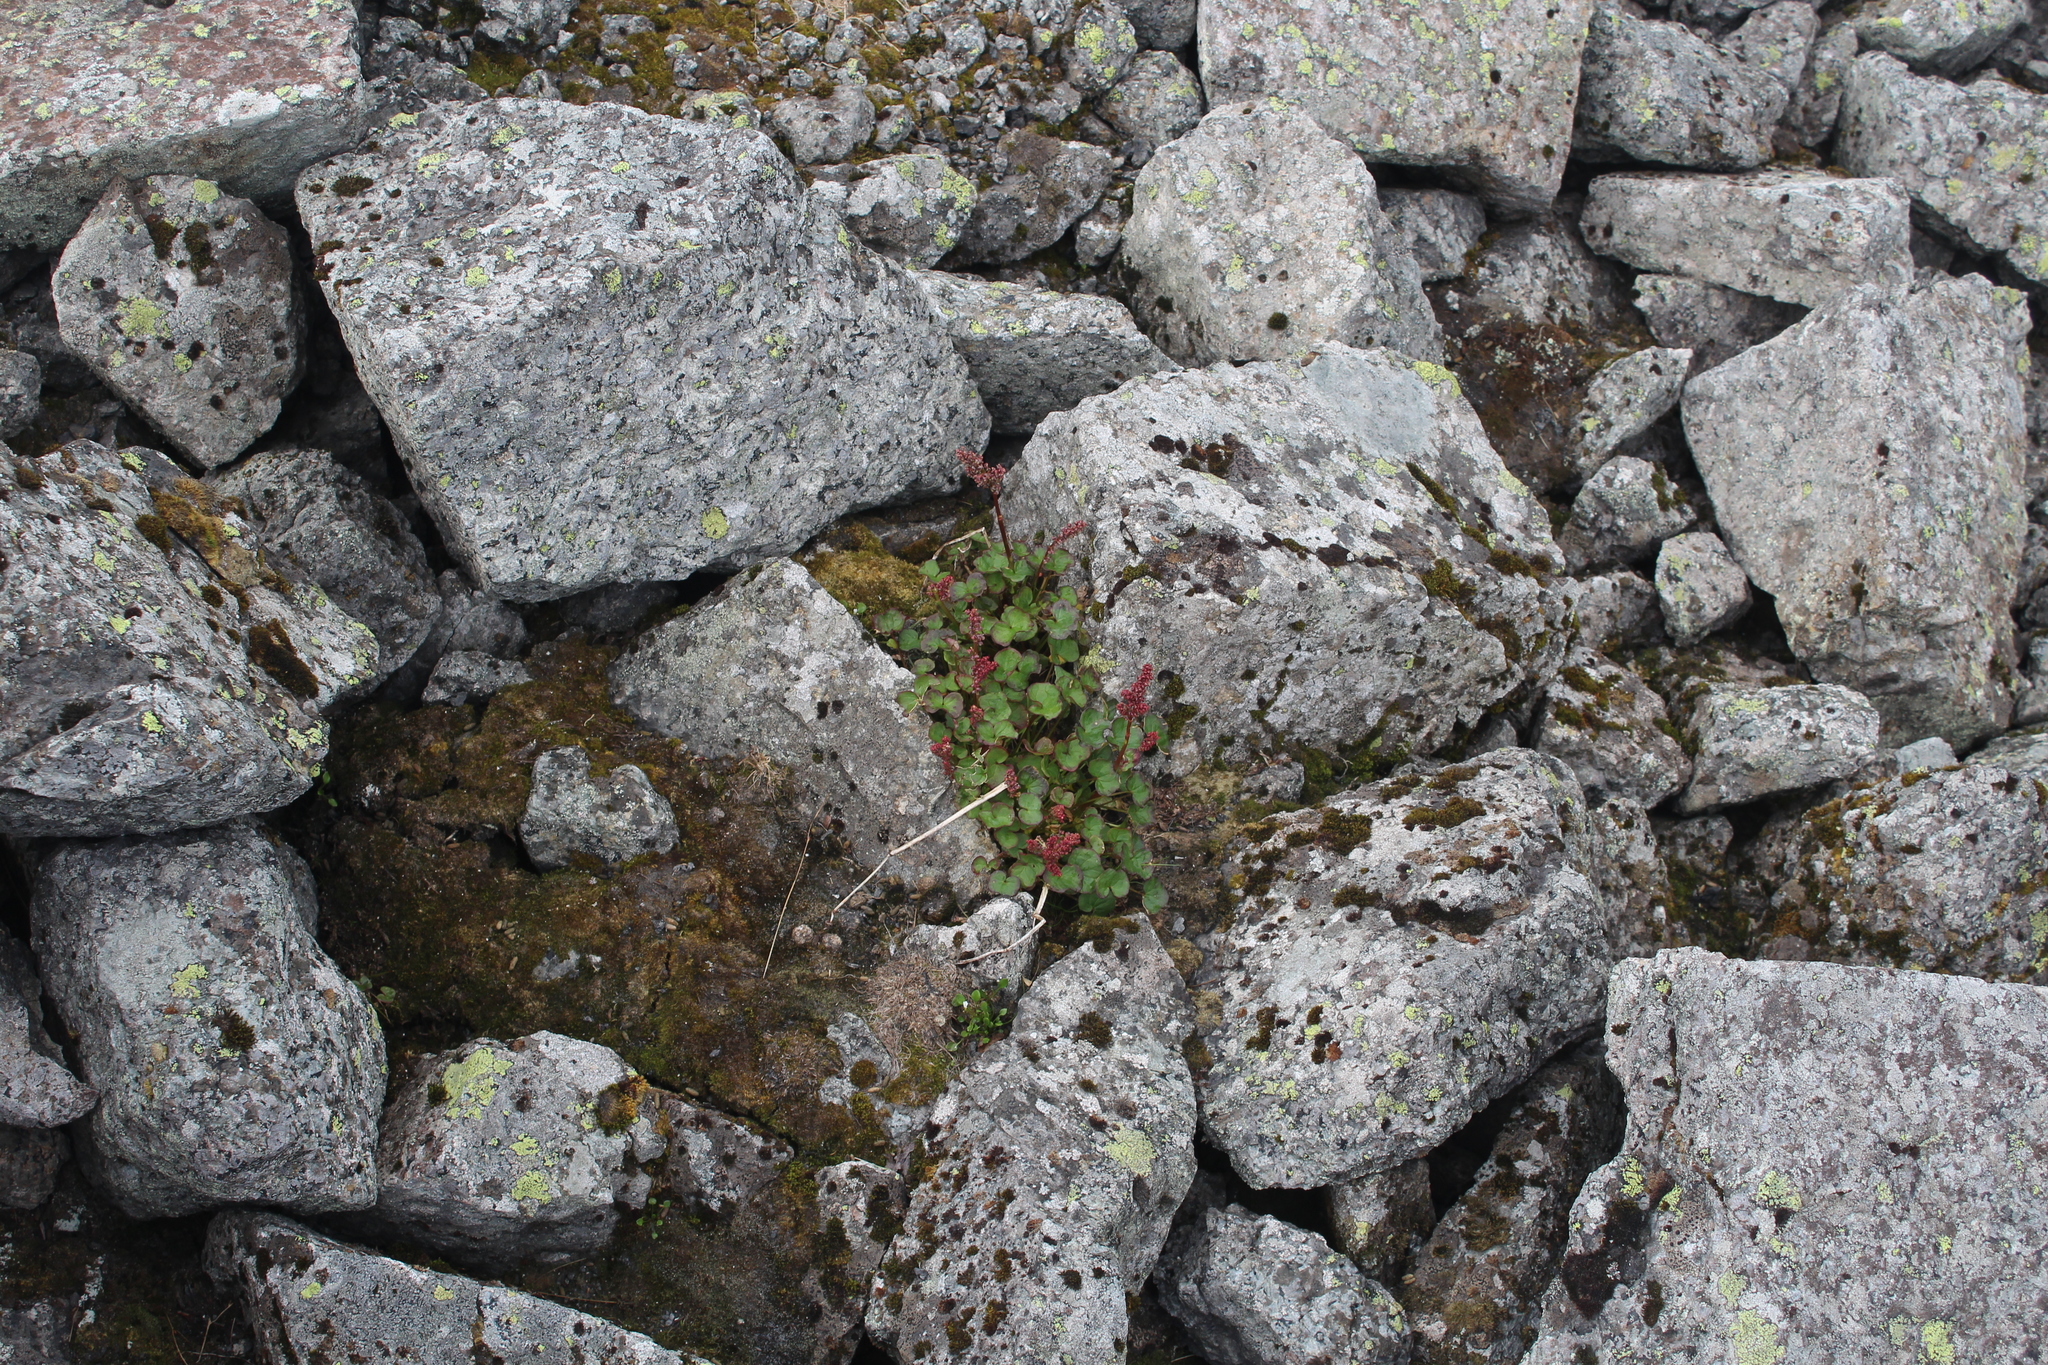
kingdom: Plantae
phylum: Tracheophyta
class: Magnoliopsida
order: Caryophyllales
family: Polygonaceae
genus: Oxyria
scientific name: Oxyria digyna
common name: Alpine mountain-sorrel
